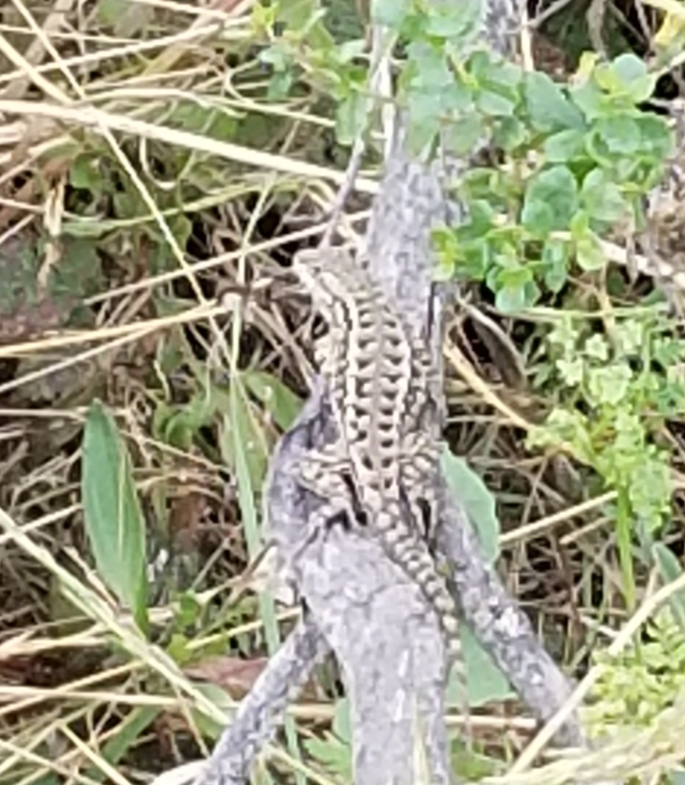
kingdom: Animalia
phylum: Chordata
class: Squamata
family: Phrynosomatidae
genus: Sceloporus
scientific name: Sceloporus occidentalis
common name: Western fence lizard
